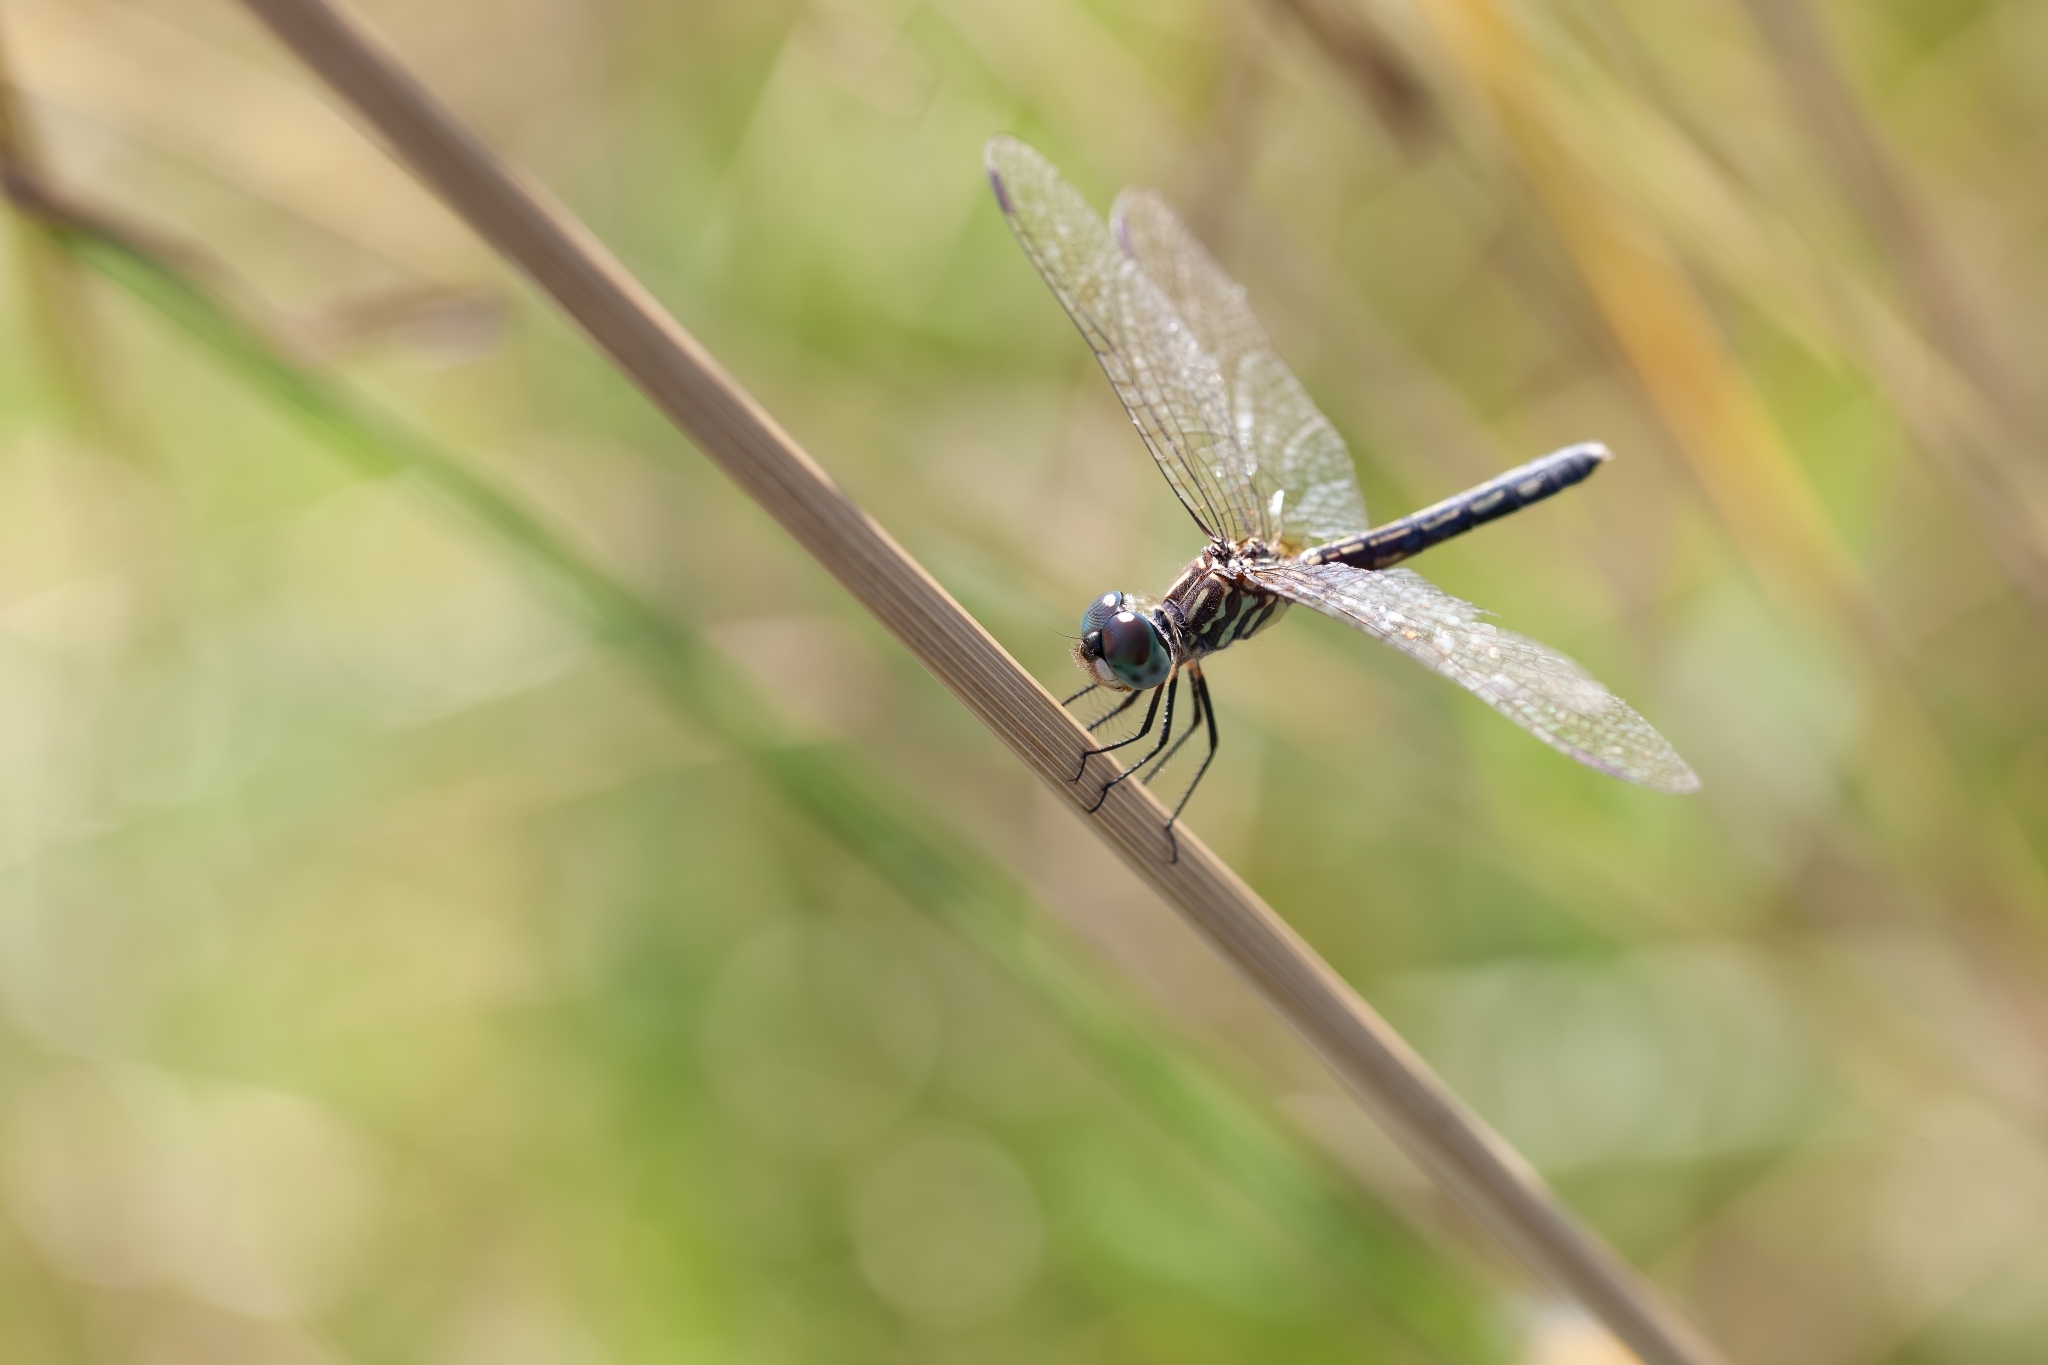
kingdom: Animalia
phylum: Arthropoda
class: Insecta
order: Odonata
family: Libellulidae
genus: Pachydiplax
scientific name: Pachydiplax longipennis
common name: Blue dasher
